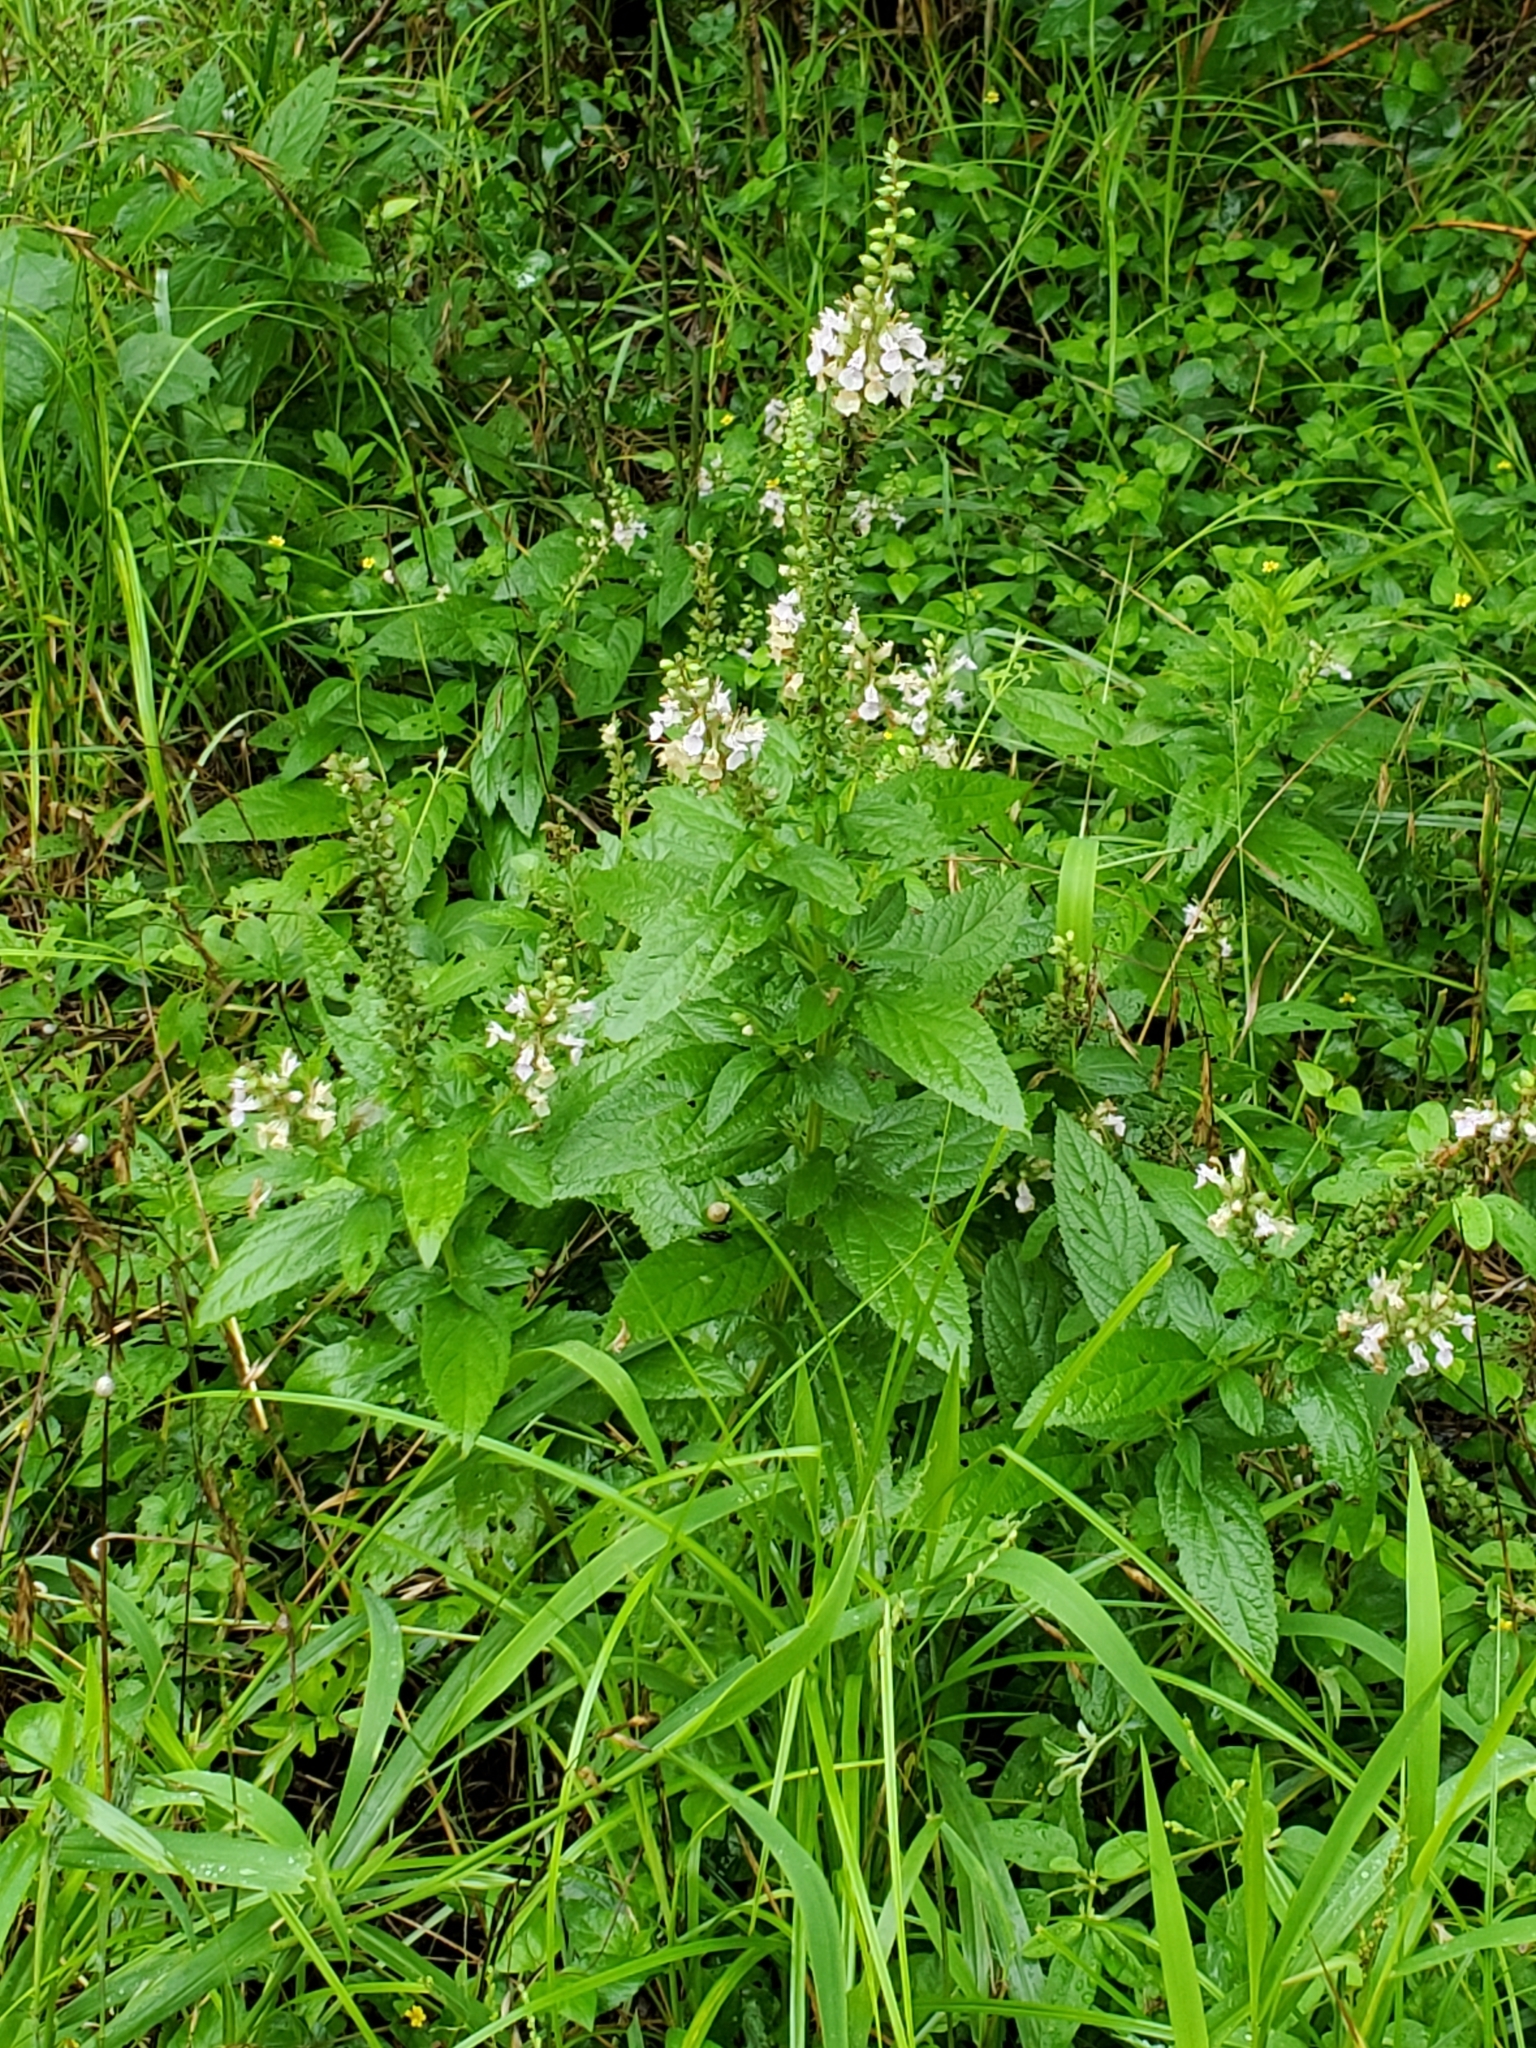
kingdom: Plantae
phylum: Tracheophyta
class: Magnoliopsida
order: Lamiales
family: Lamiaceae
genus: Teucrium
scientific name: Teucrium canadense
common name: American germander
